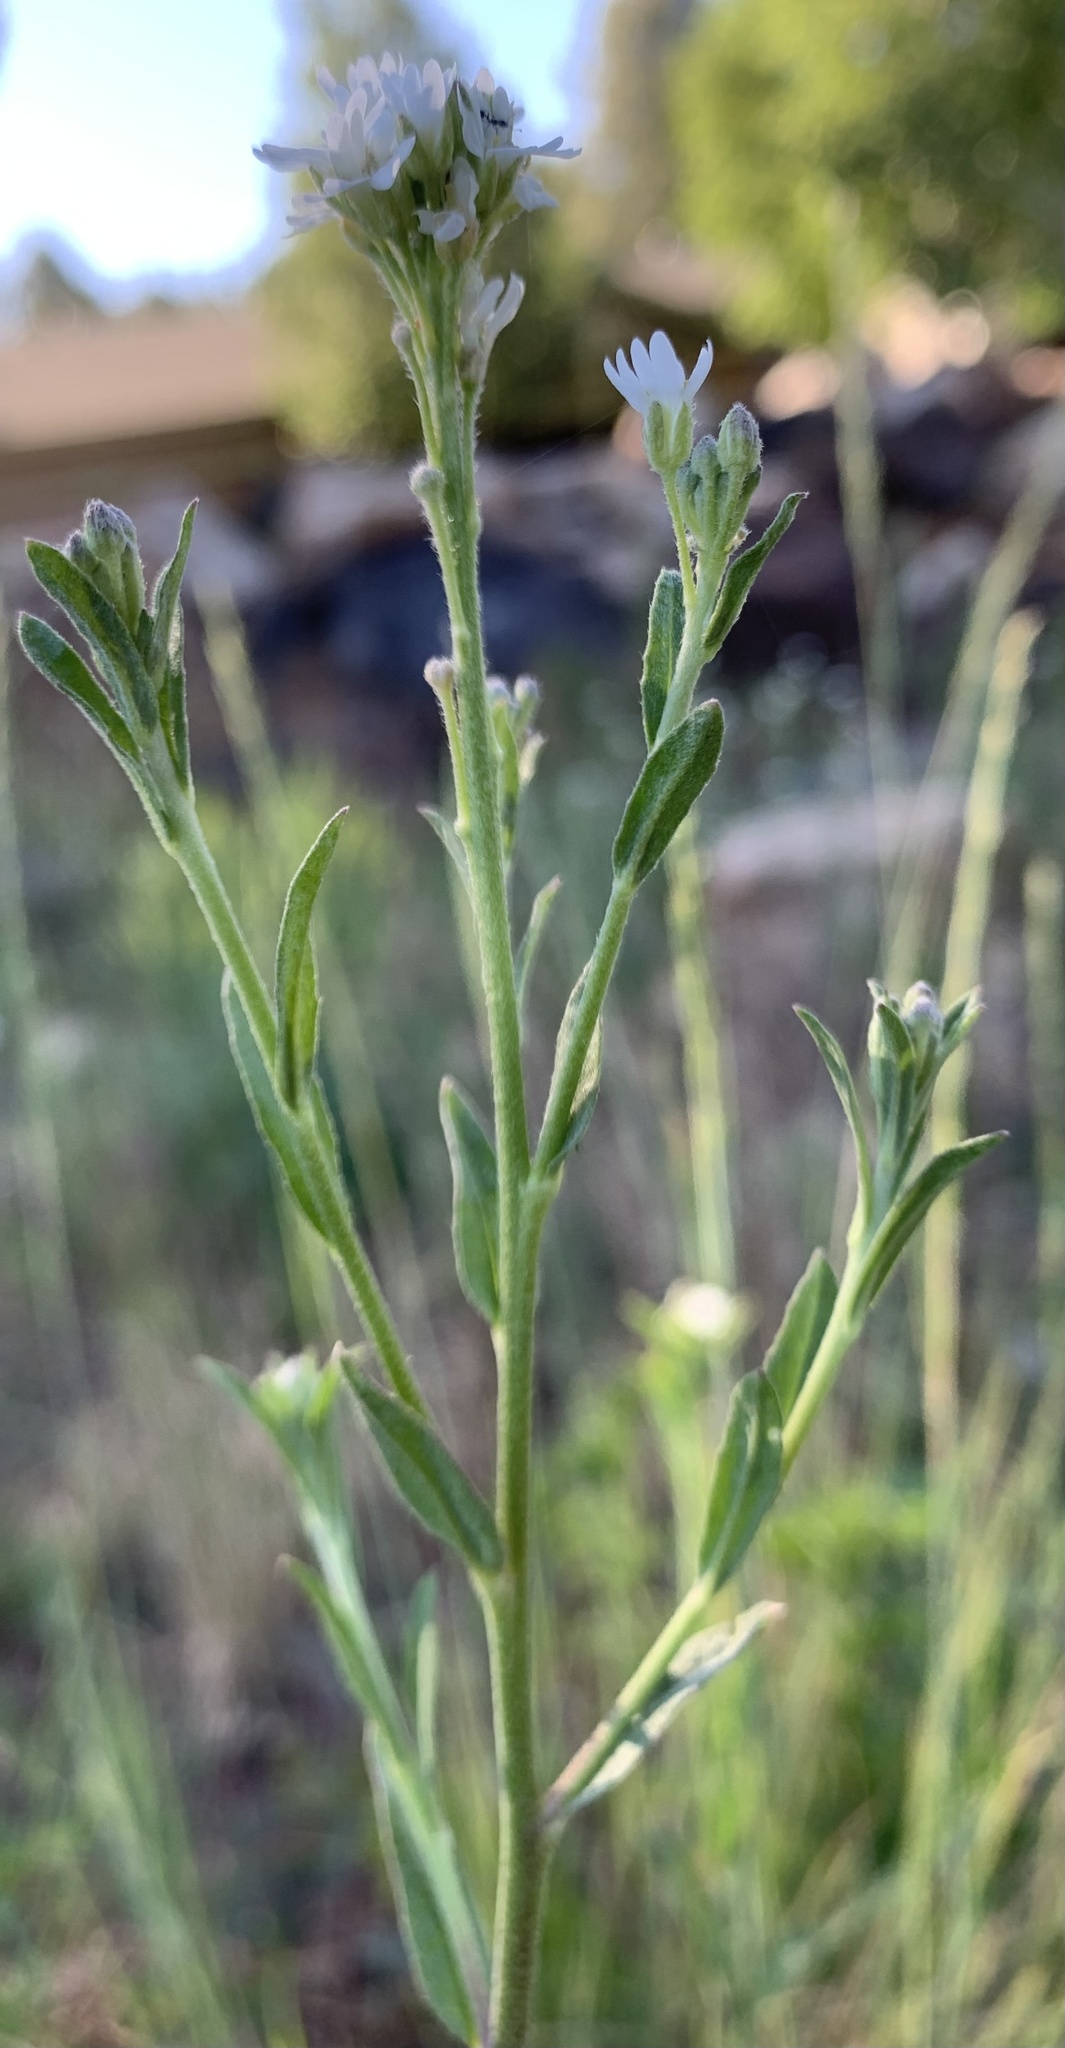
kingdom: Plantae
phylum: Tracheophyta
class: Magnoliopsida
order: Brassicales
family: Brassicaceae
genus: Berteroa
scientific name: Berteroa incana
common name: Hoary alison
